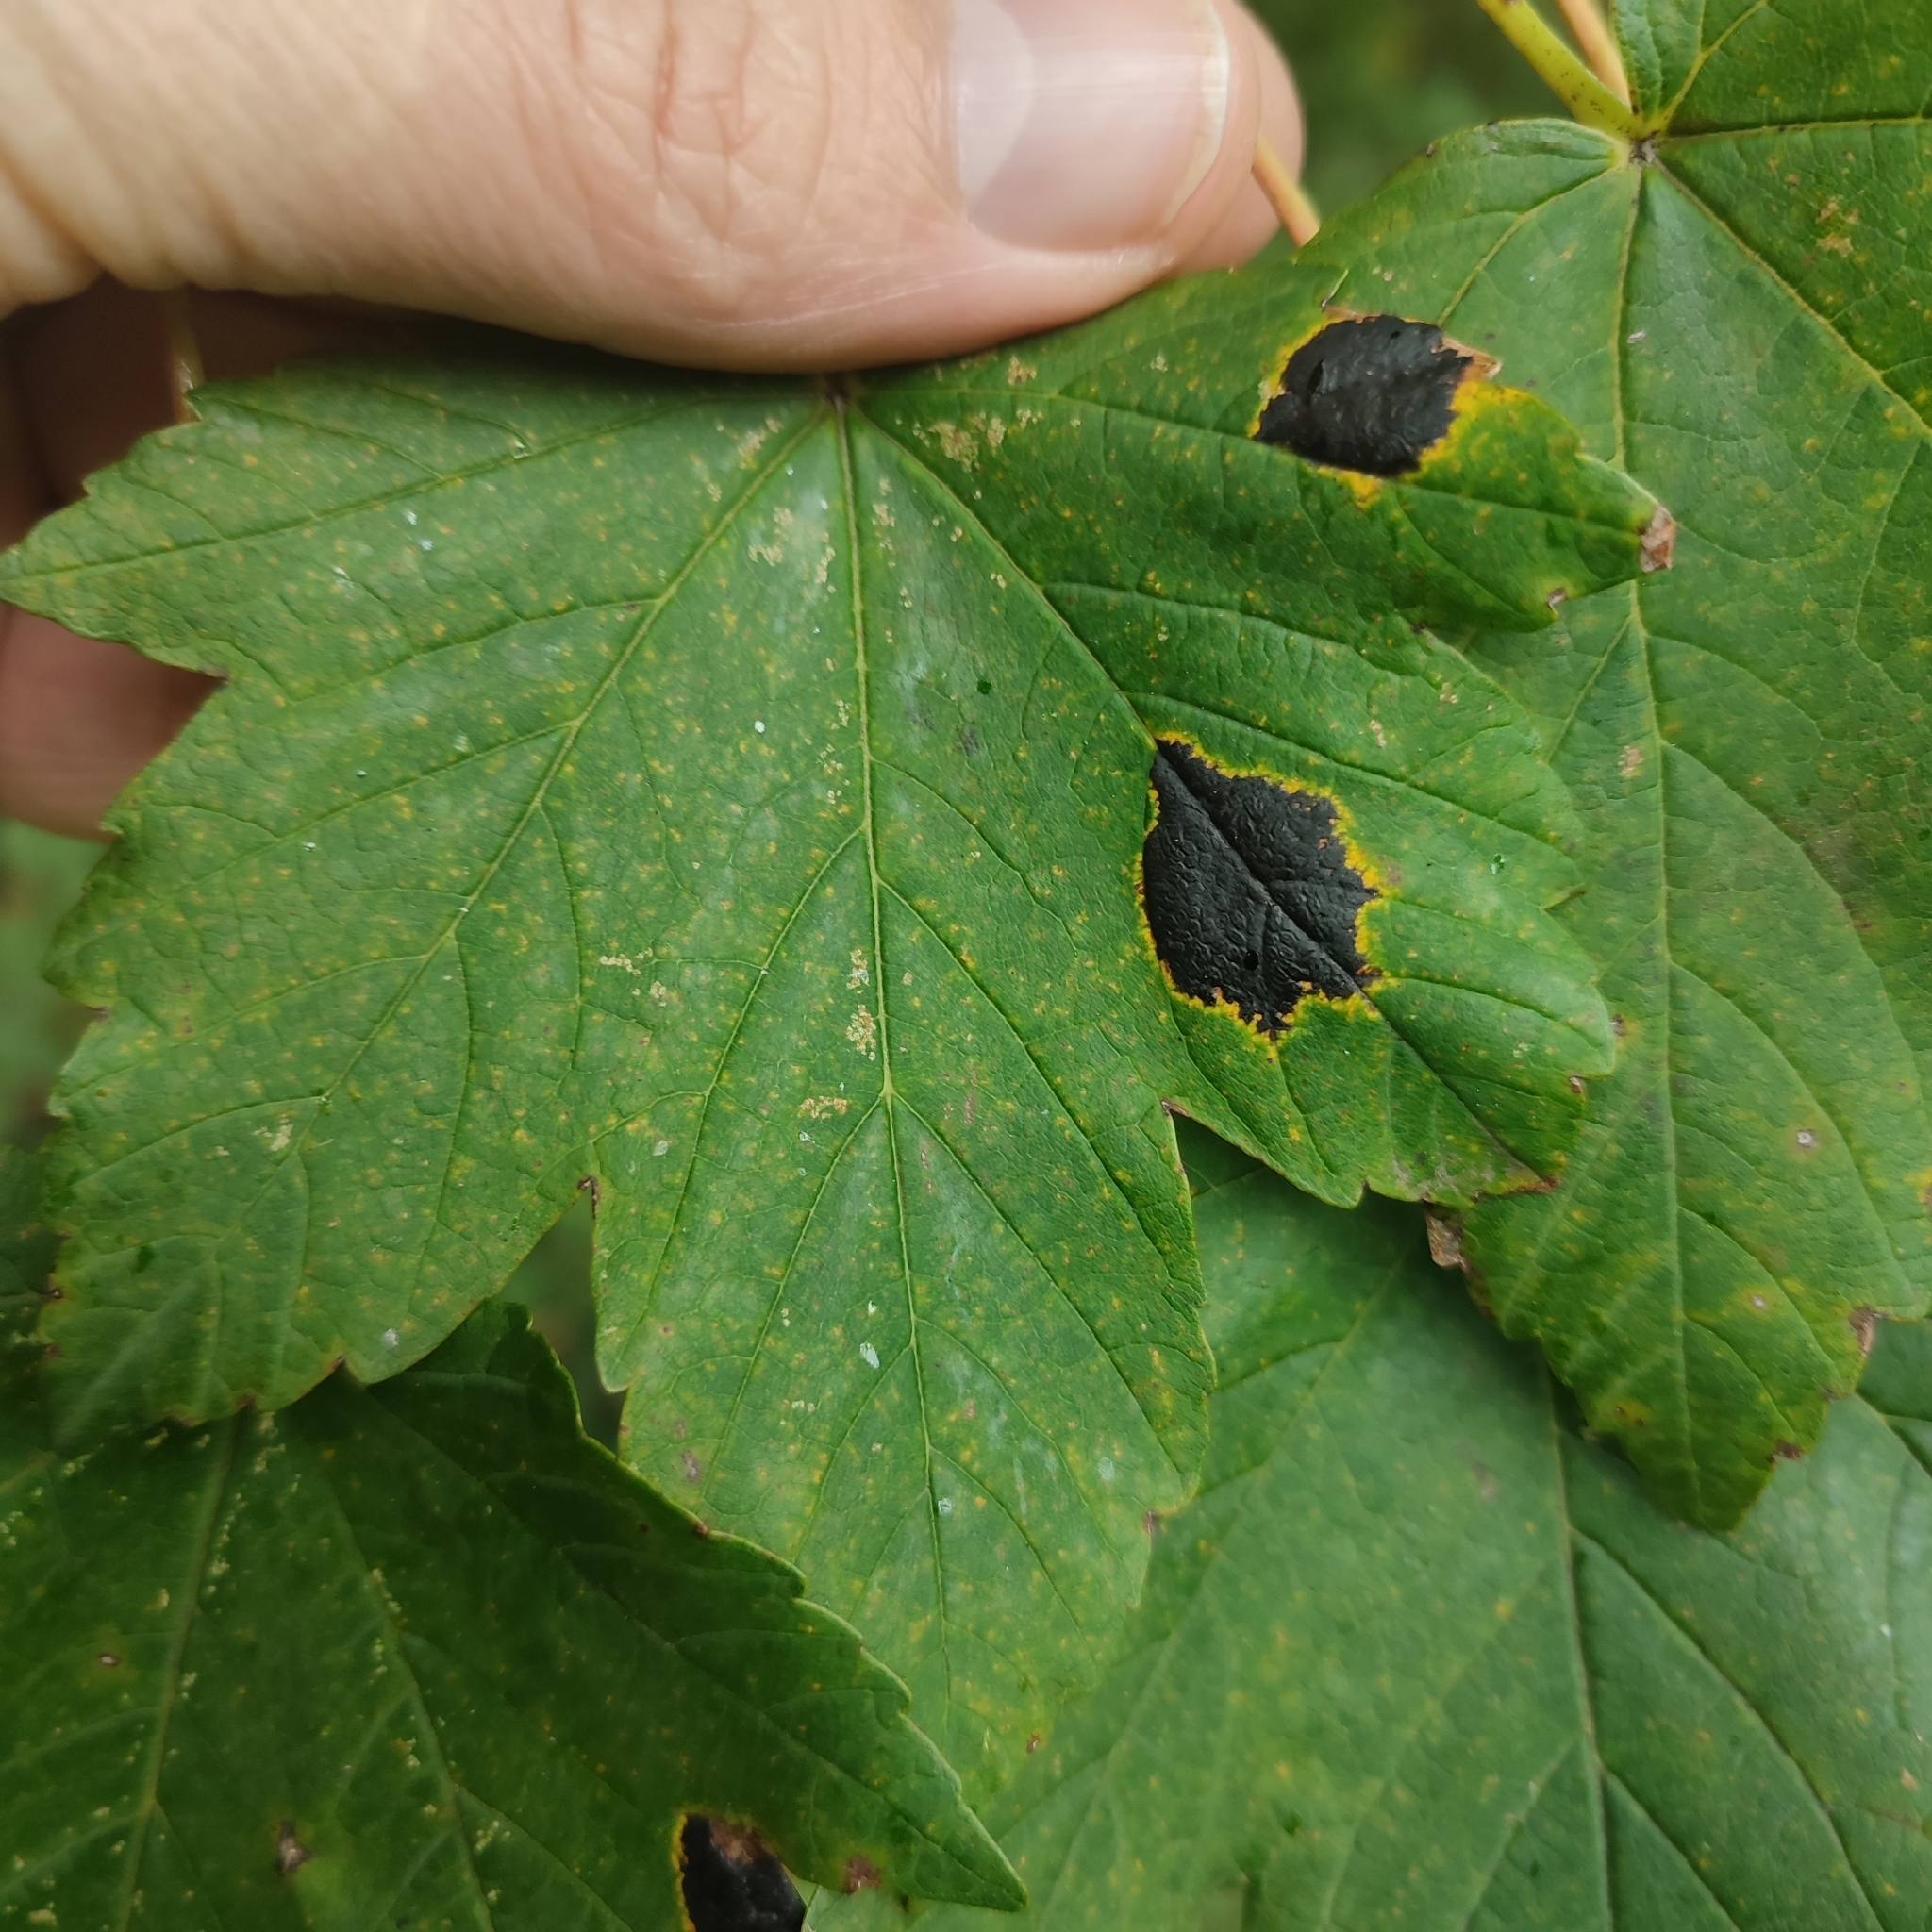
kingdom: Fungi
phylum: Ascomycota
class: Leotiomycetes
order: Rhytismatales
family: Rhytismataceae
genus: Rhytisma
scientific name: Rhytisma acerinum
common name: European tar spot
